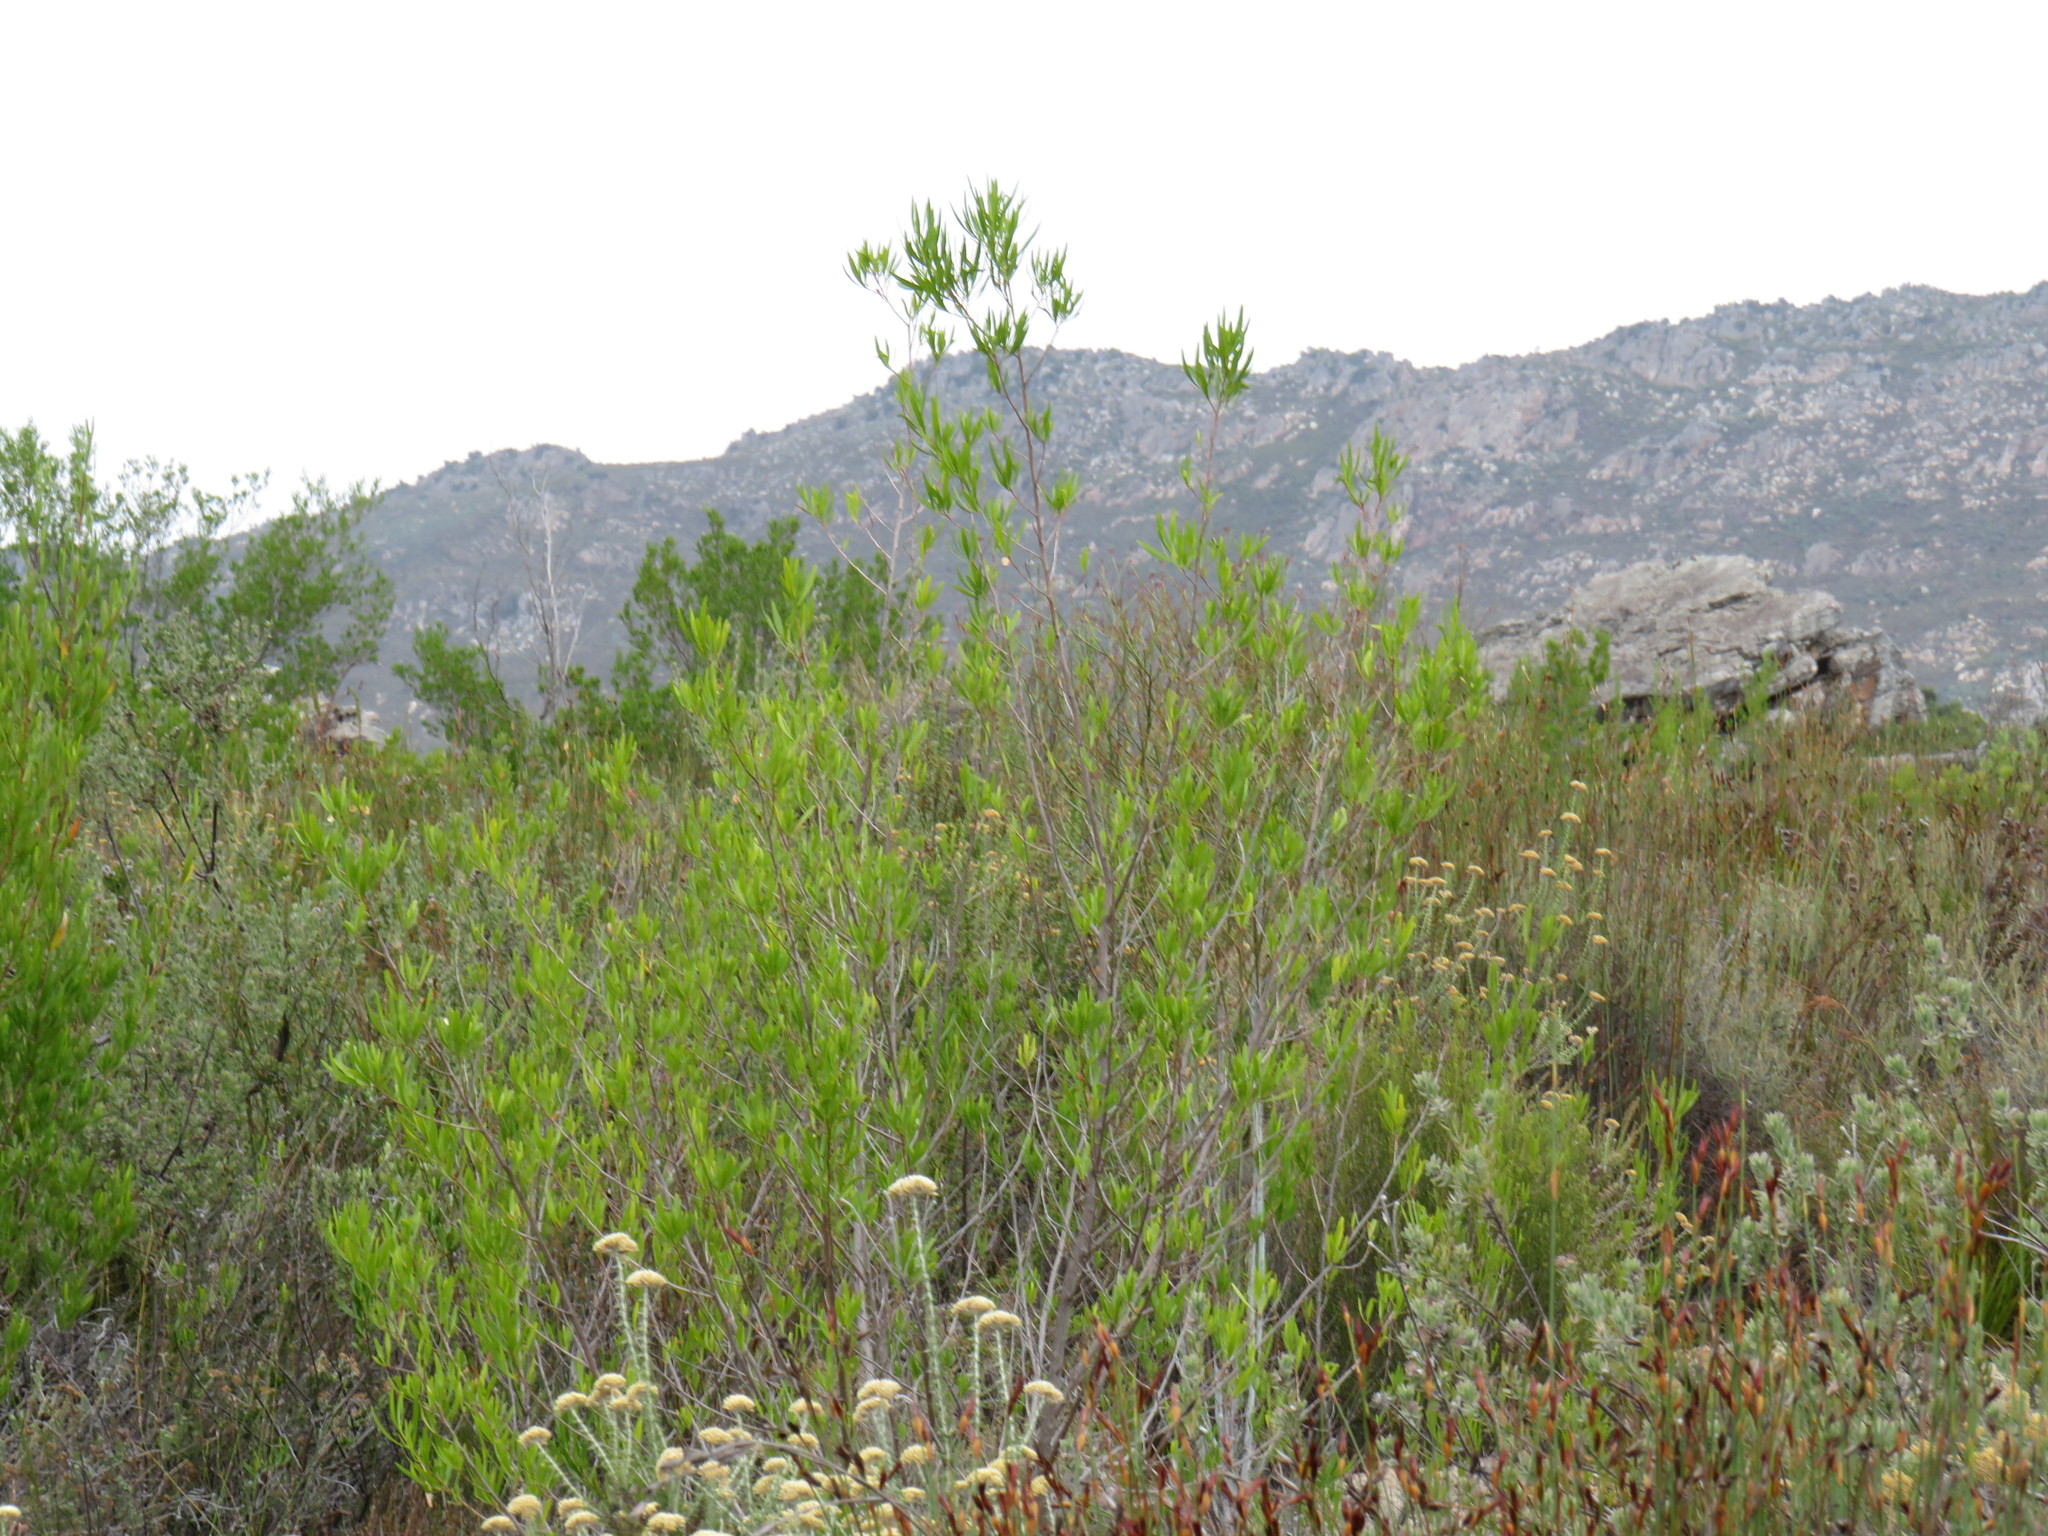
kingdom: Plantae
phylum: Tracheophyta
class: Magnoliopsida
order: Sapindales
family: Sapindaceae
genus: Dodonaea
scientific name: Dodonaea viscosa
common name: Hopbush
